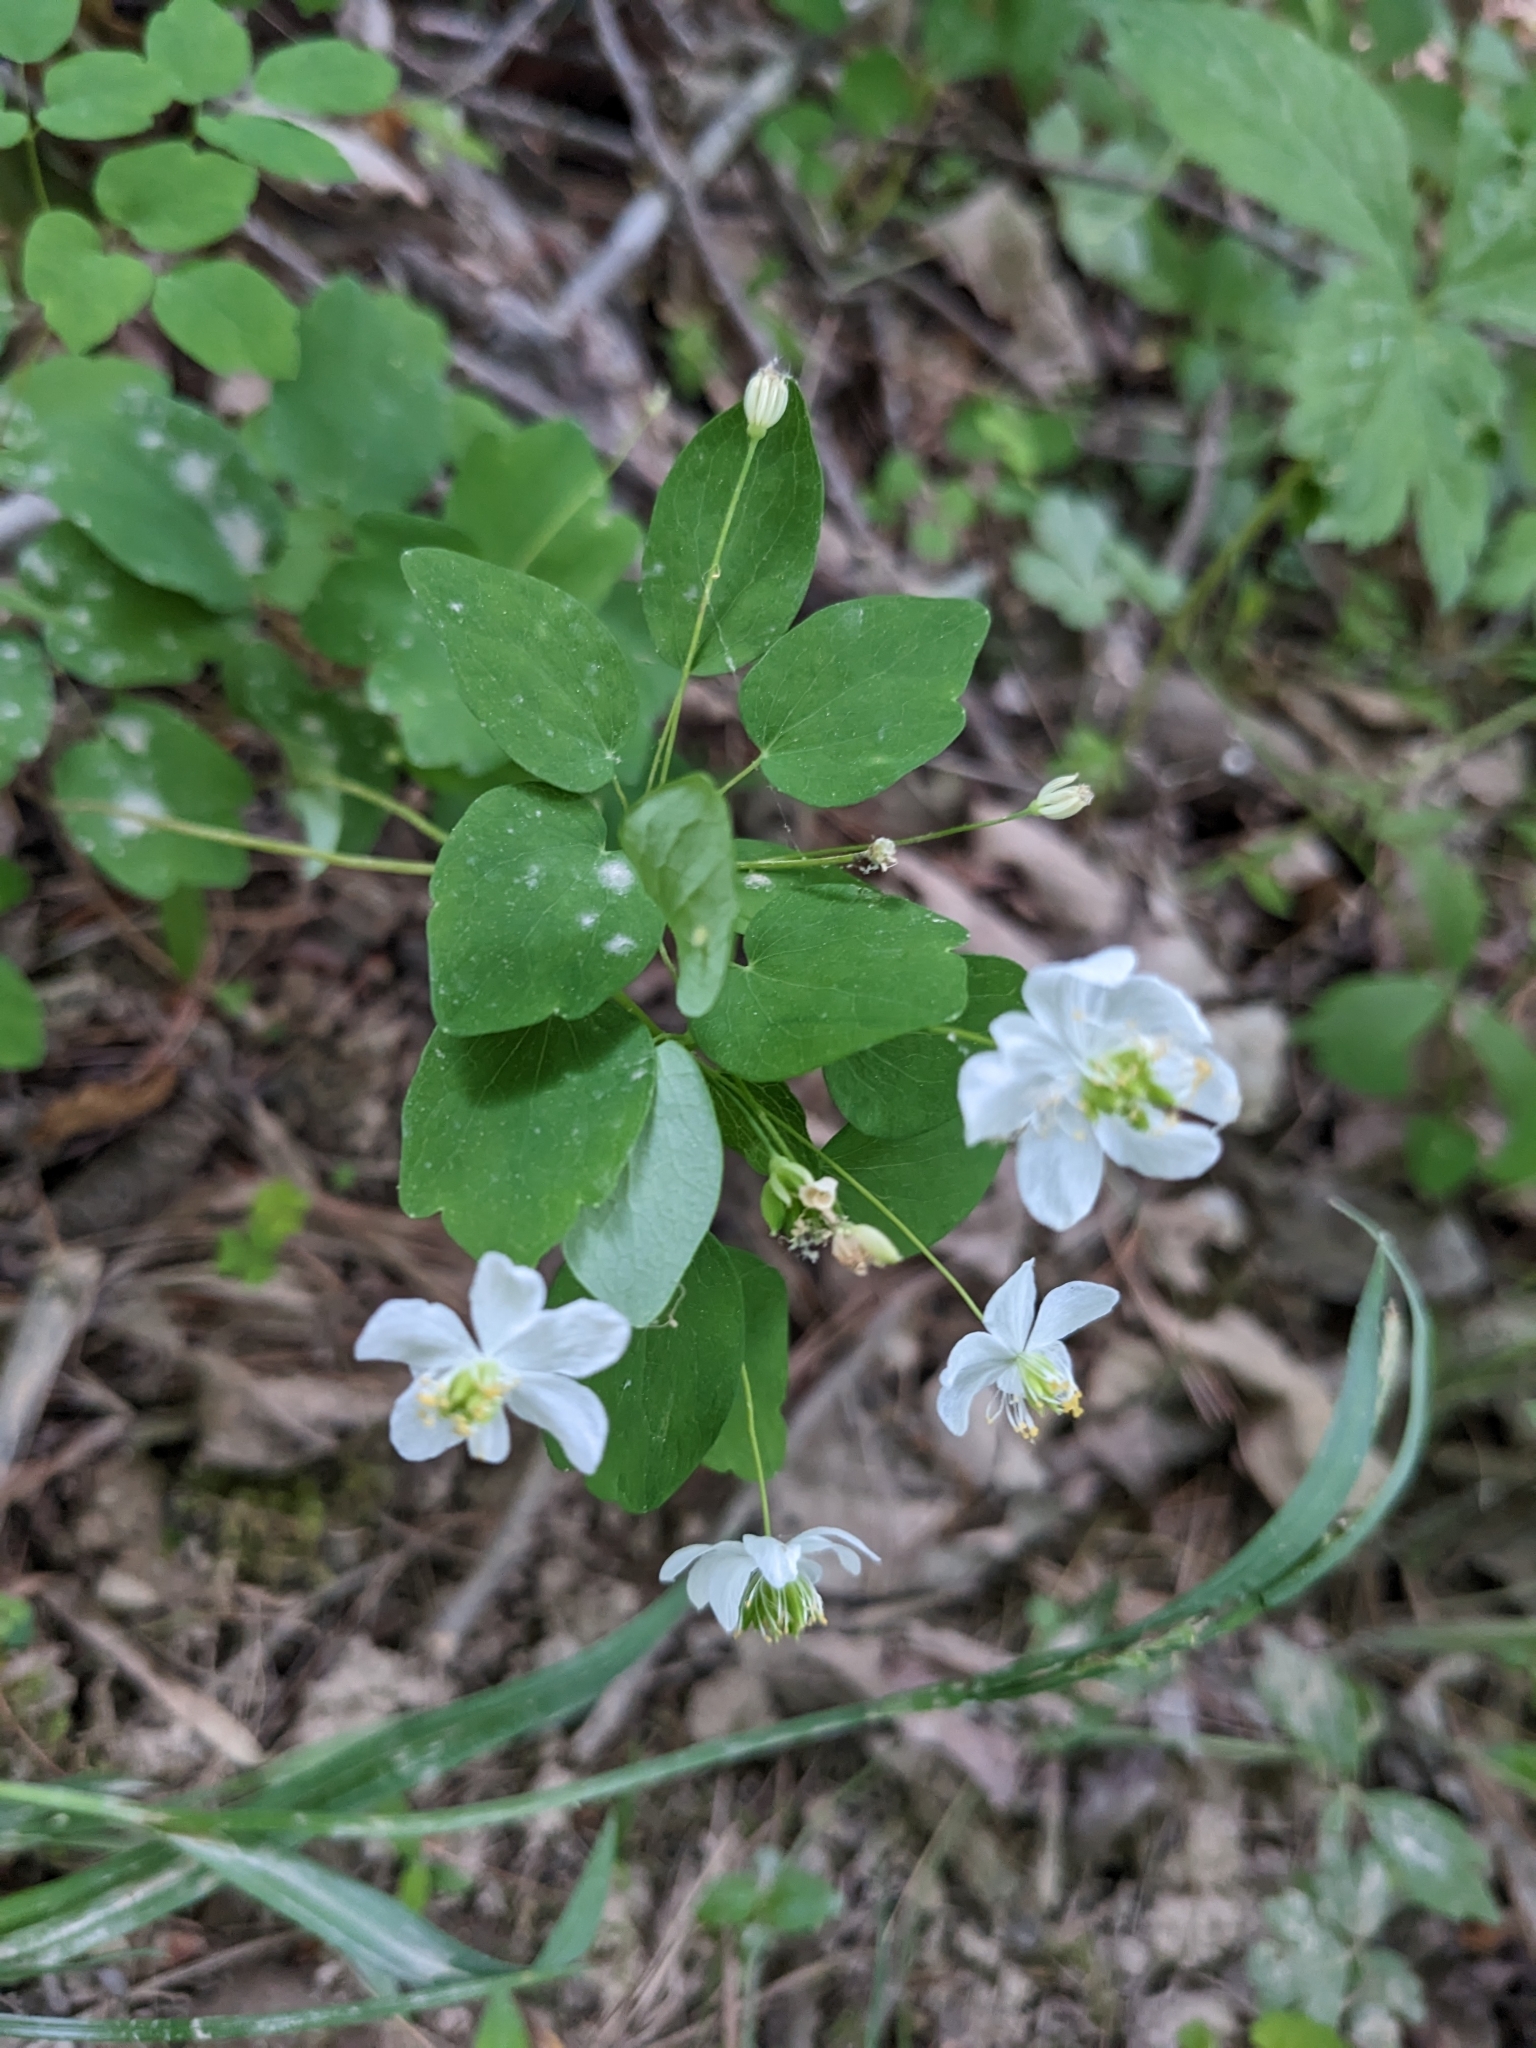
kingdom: Plantae
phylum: Tracheophyta
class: Magnoliopsida
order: Ranunculales
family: Ranunculaceae
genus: Thalictrum
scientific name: Thalictrum thalictroides
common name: Rue-anemone
